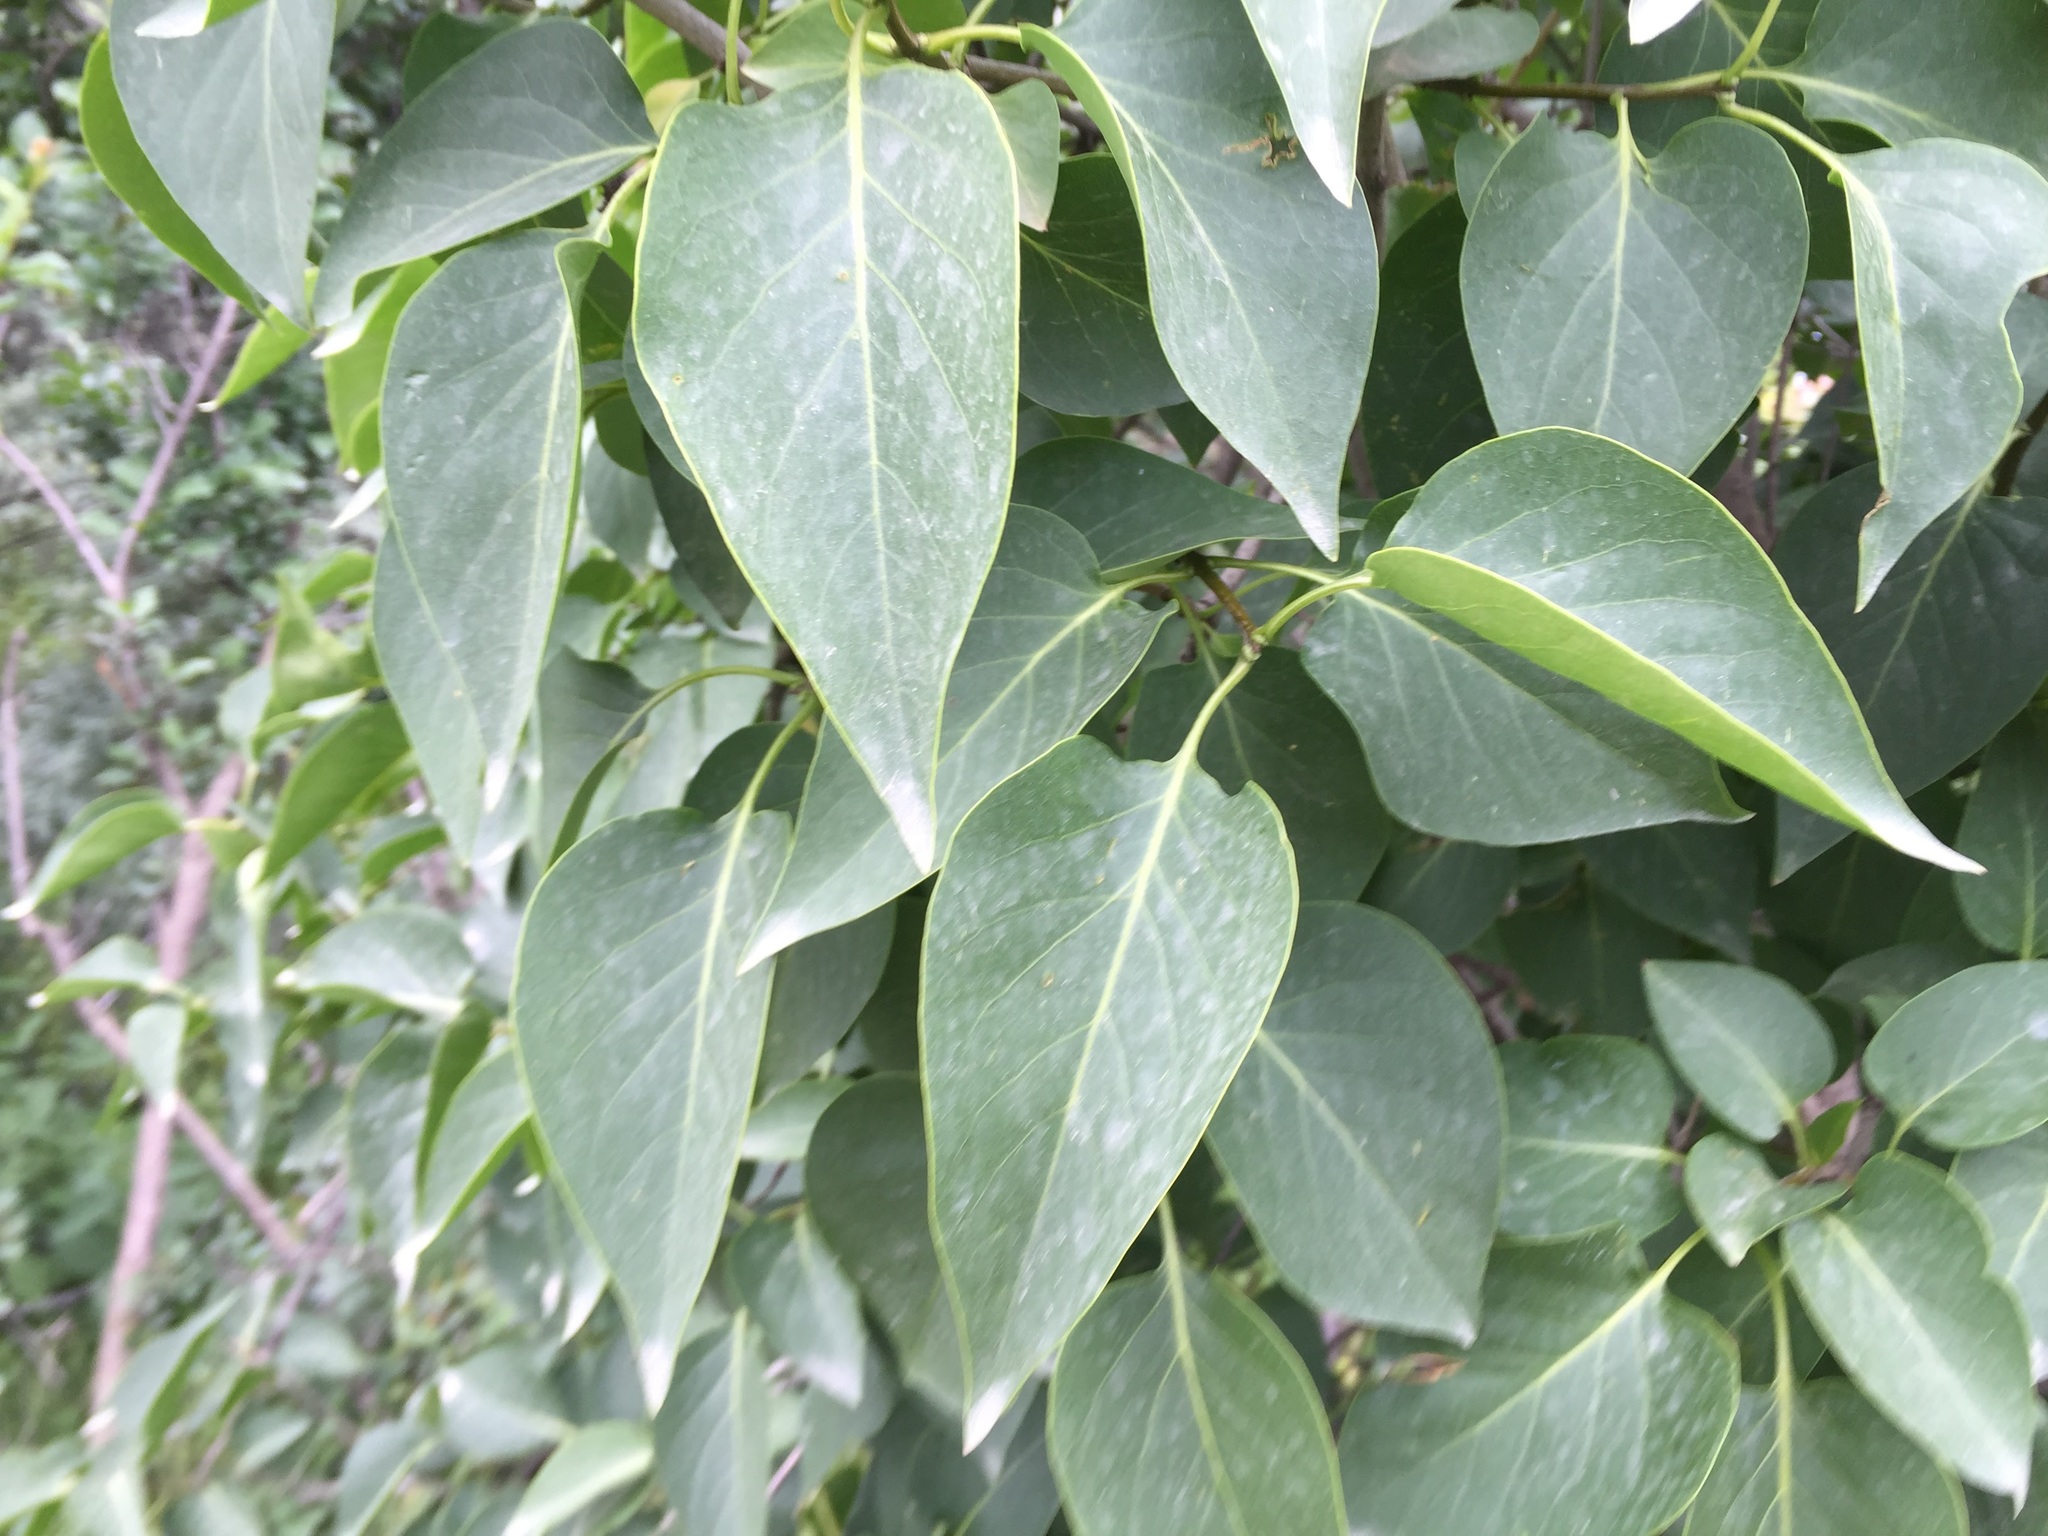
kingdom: Plantae
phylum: Tracheophyta
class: Magnoliopsida
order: Lamiales
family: Oleaceae
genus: Syringa
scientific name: Syringa vulgaris
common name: Common lilac
